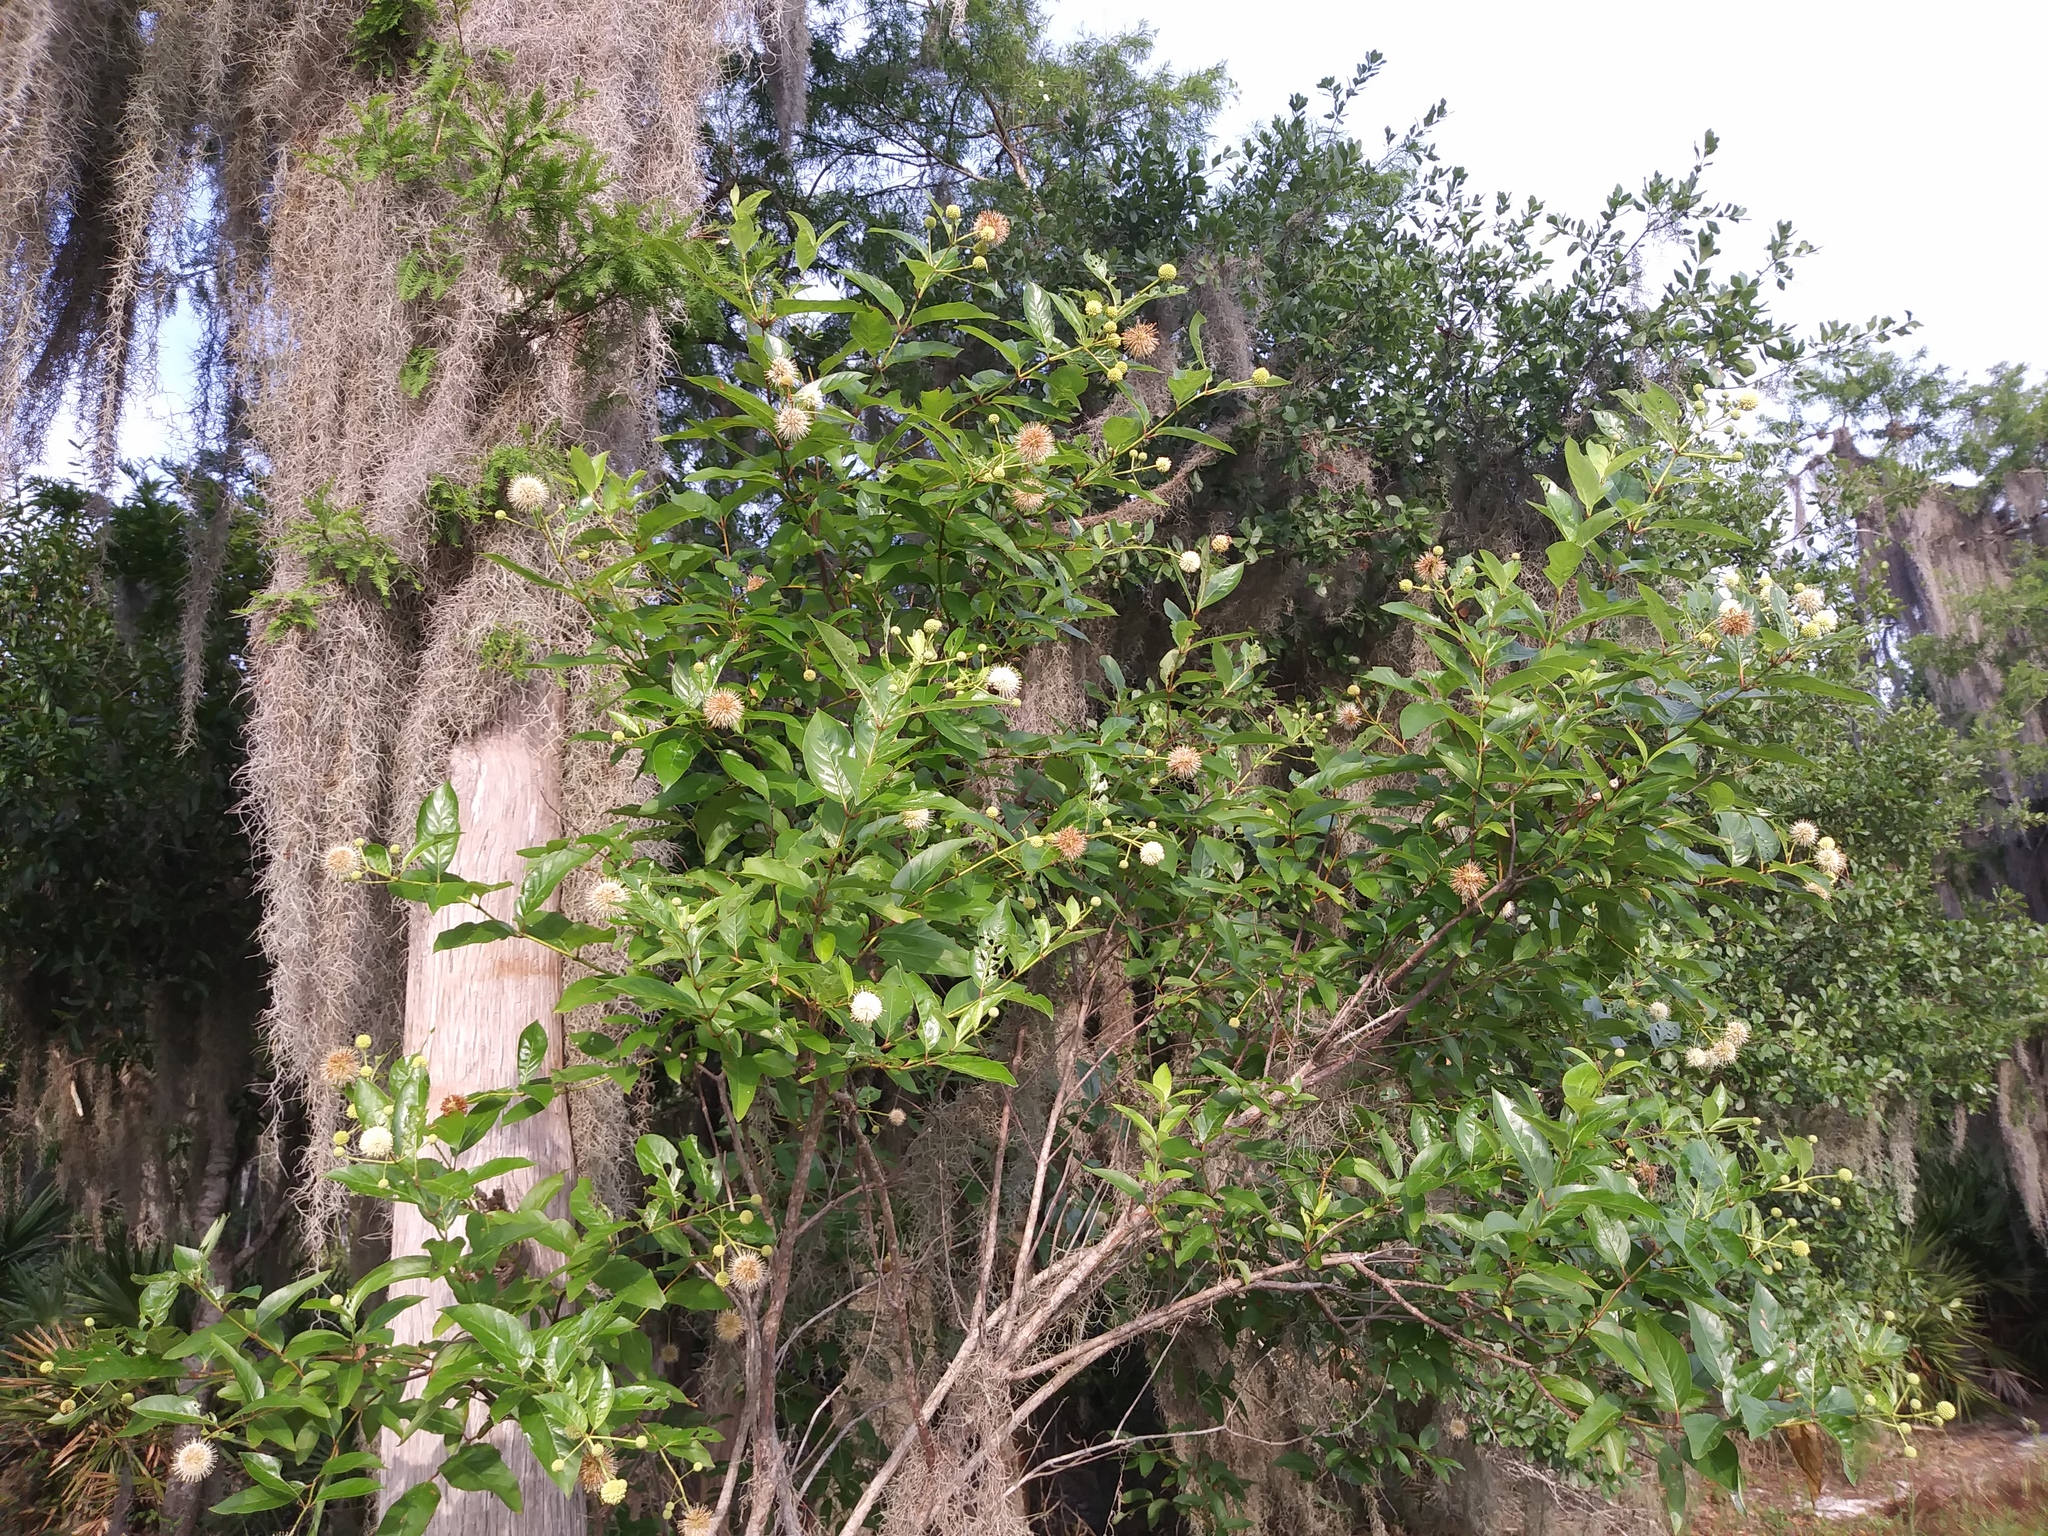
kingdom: Plantae
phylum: Tracheophyta
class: Magnoliopsida
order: Gentianales
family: Rubiaceae
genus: Cephalanthus
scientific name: Cephalanthus occidentalis
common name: Button-willow
